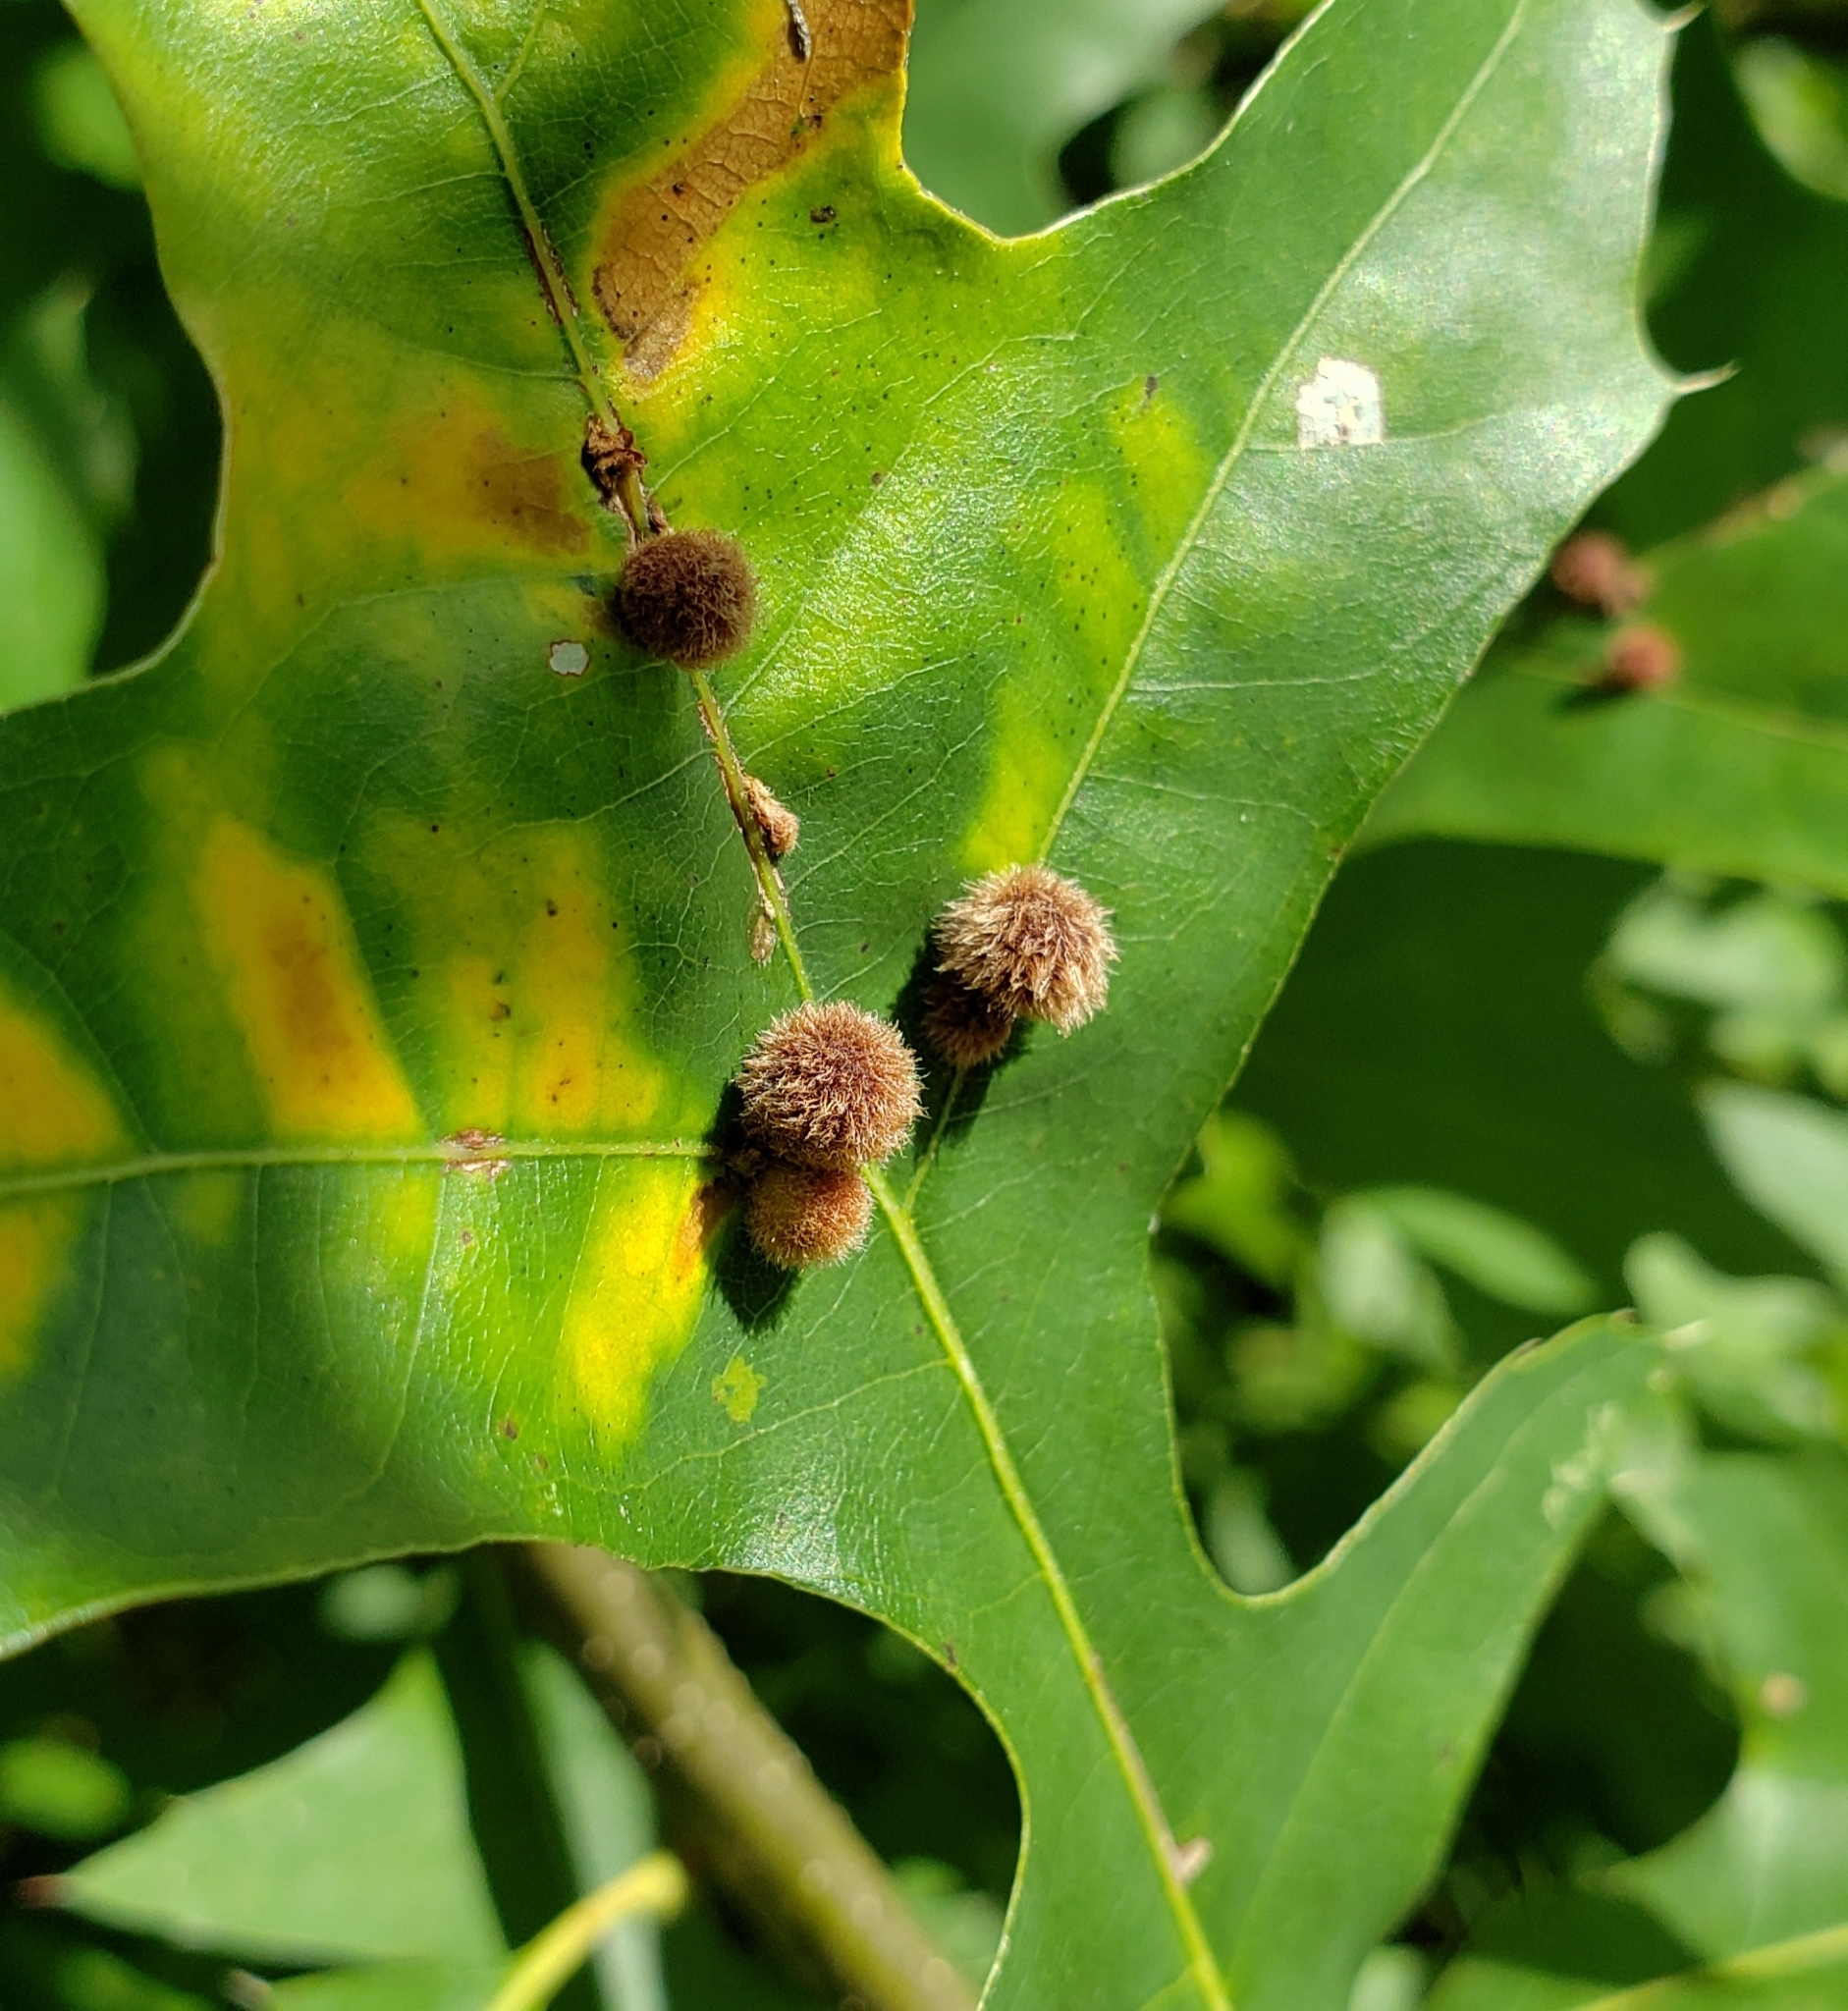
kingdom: Animalia
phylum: Arthropoda
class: Insecta
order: Hymenoptera
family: Cynipidae
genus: Callirhytis
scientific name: Callirhytis
